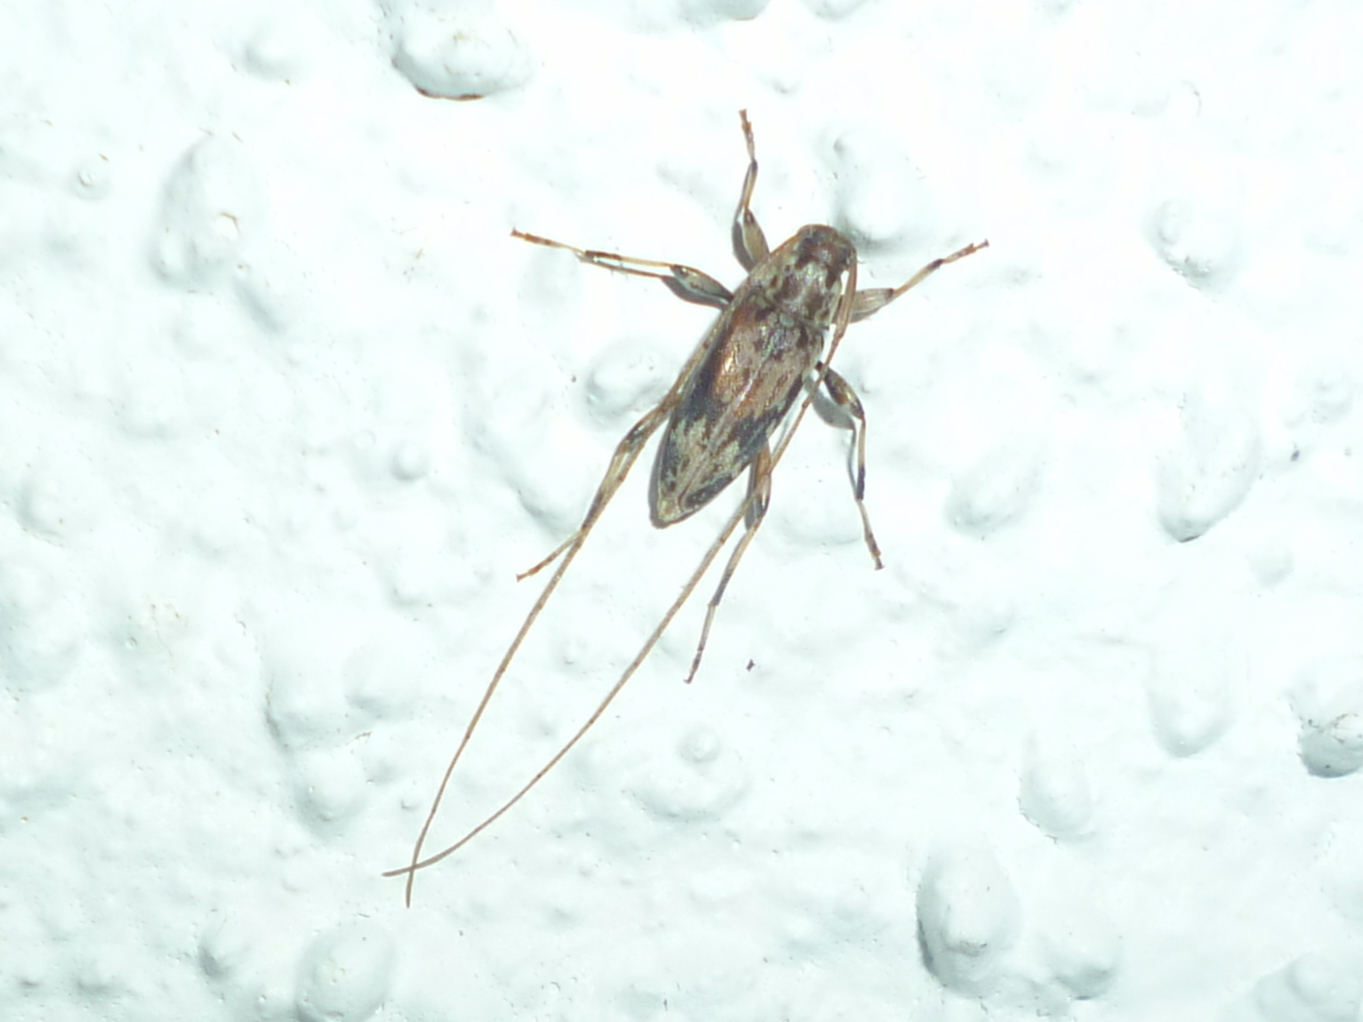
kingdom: Animalia
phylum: Arthropoda
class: Insecta
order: Coleoptera
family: Cerambycidae
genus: Lepturges
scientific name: Lepturges angulatus
